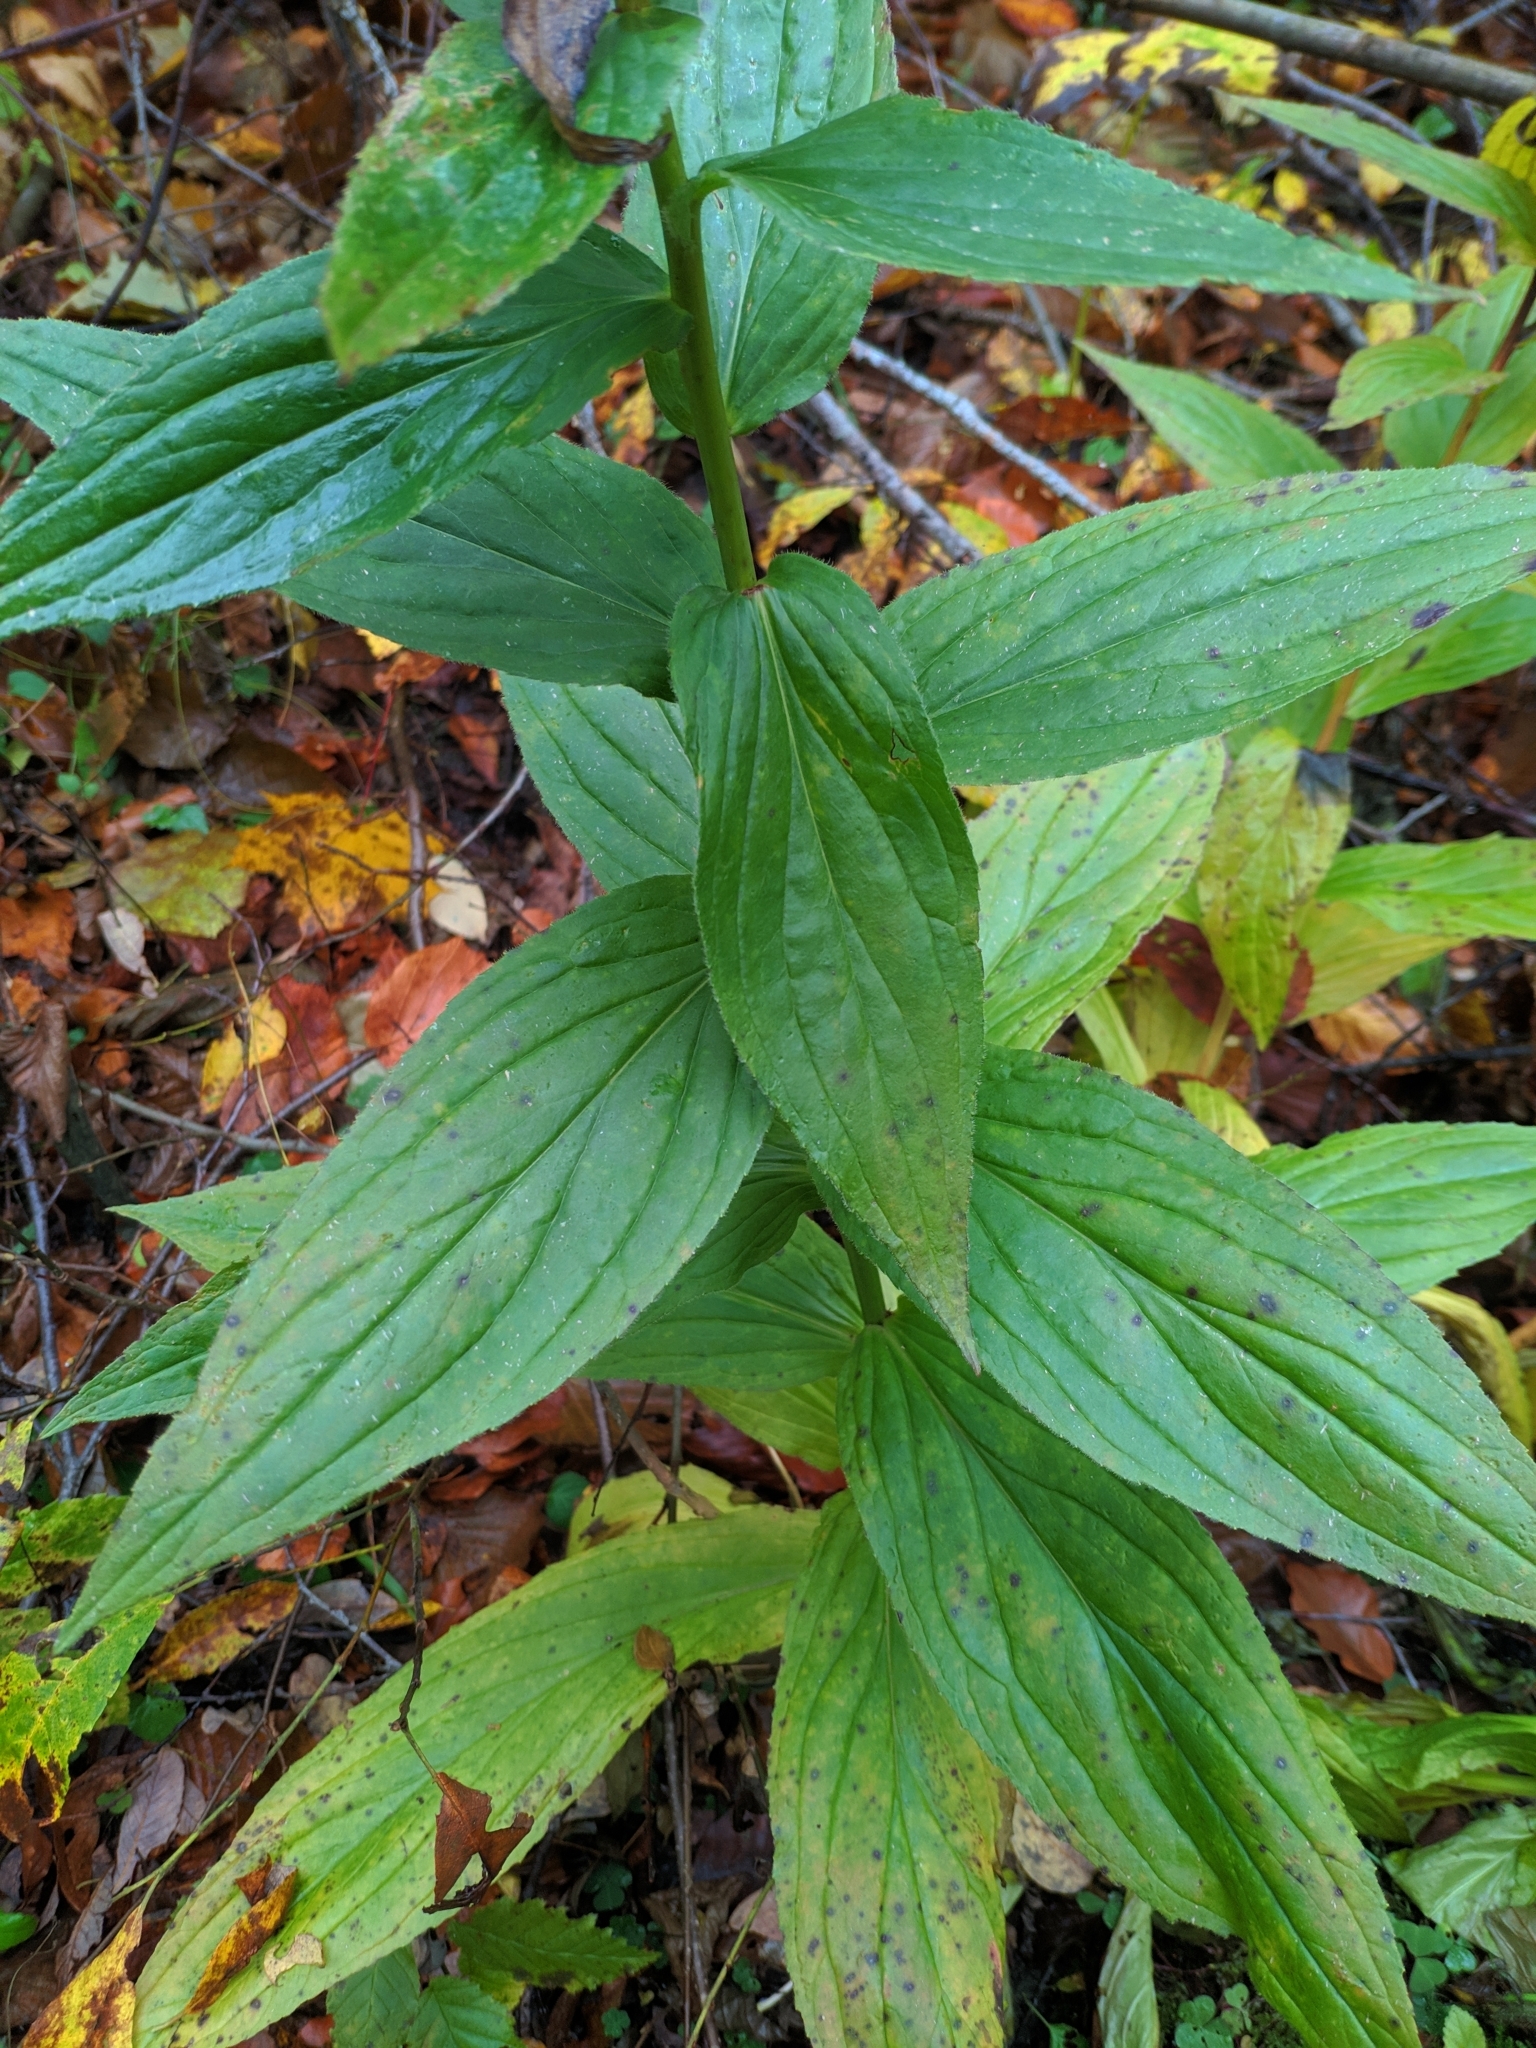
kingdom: Plantae
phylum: Tracheophyta
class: Magnoliopsida
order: Lamiales
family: Plantaginaceae
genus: Digitalis
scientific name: Digitalis grandiflora
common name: Yellow foxglove
